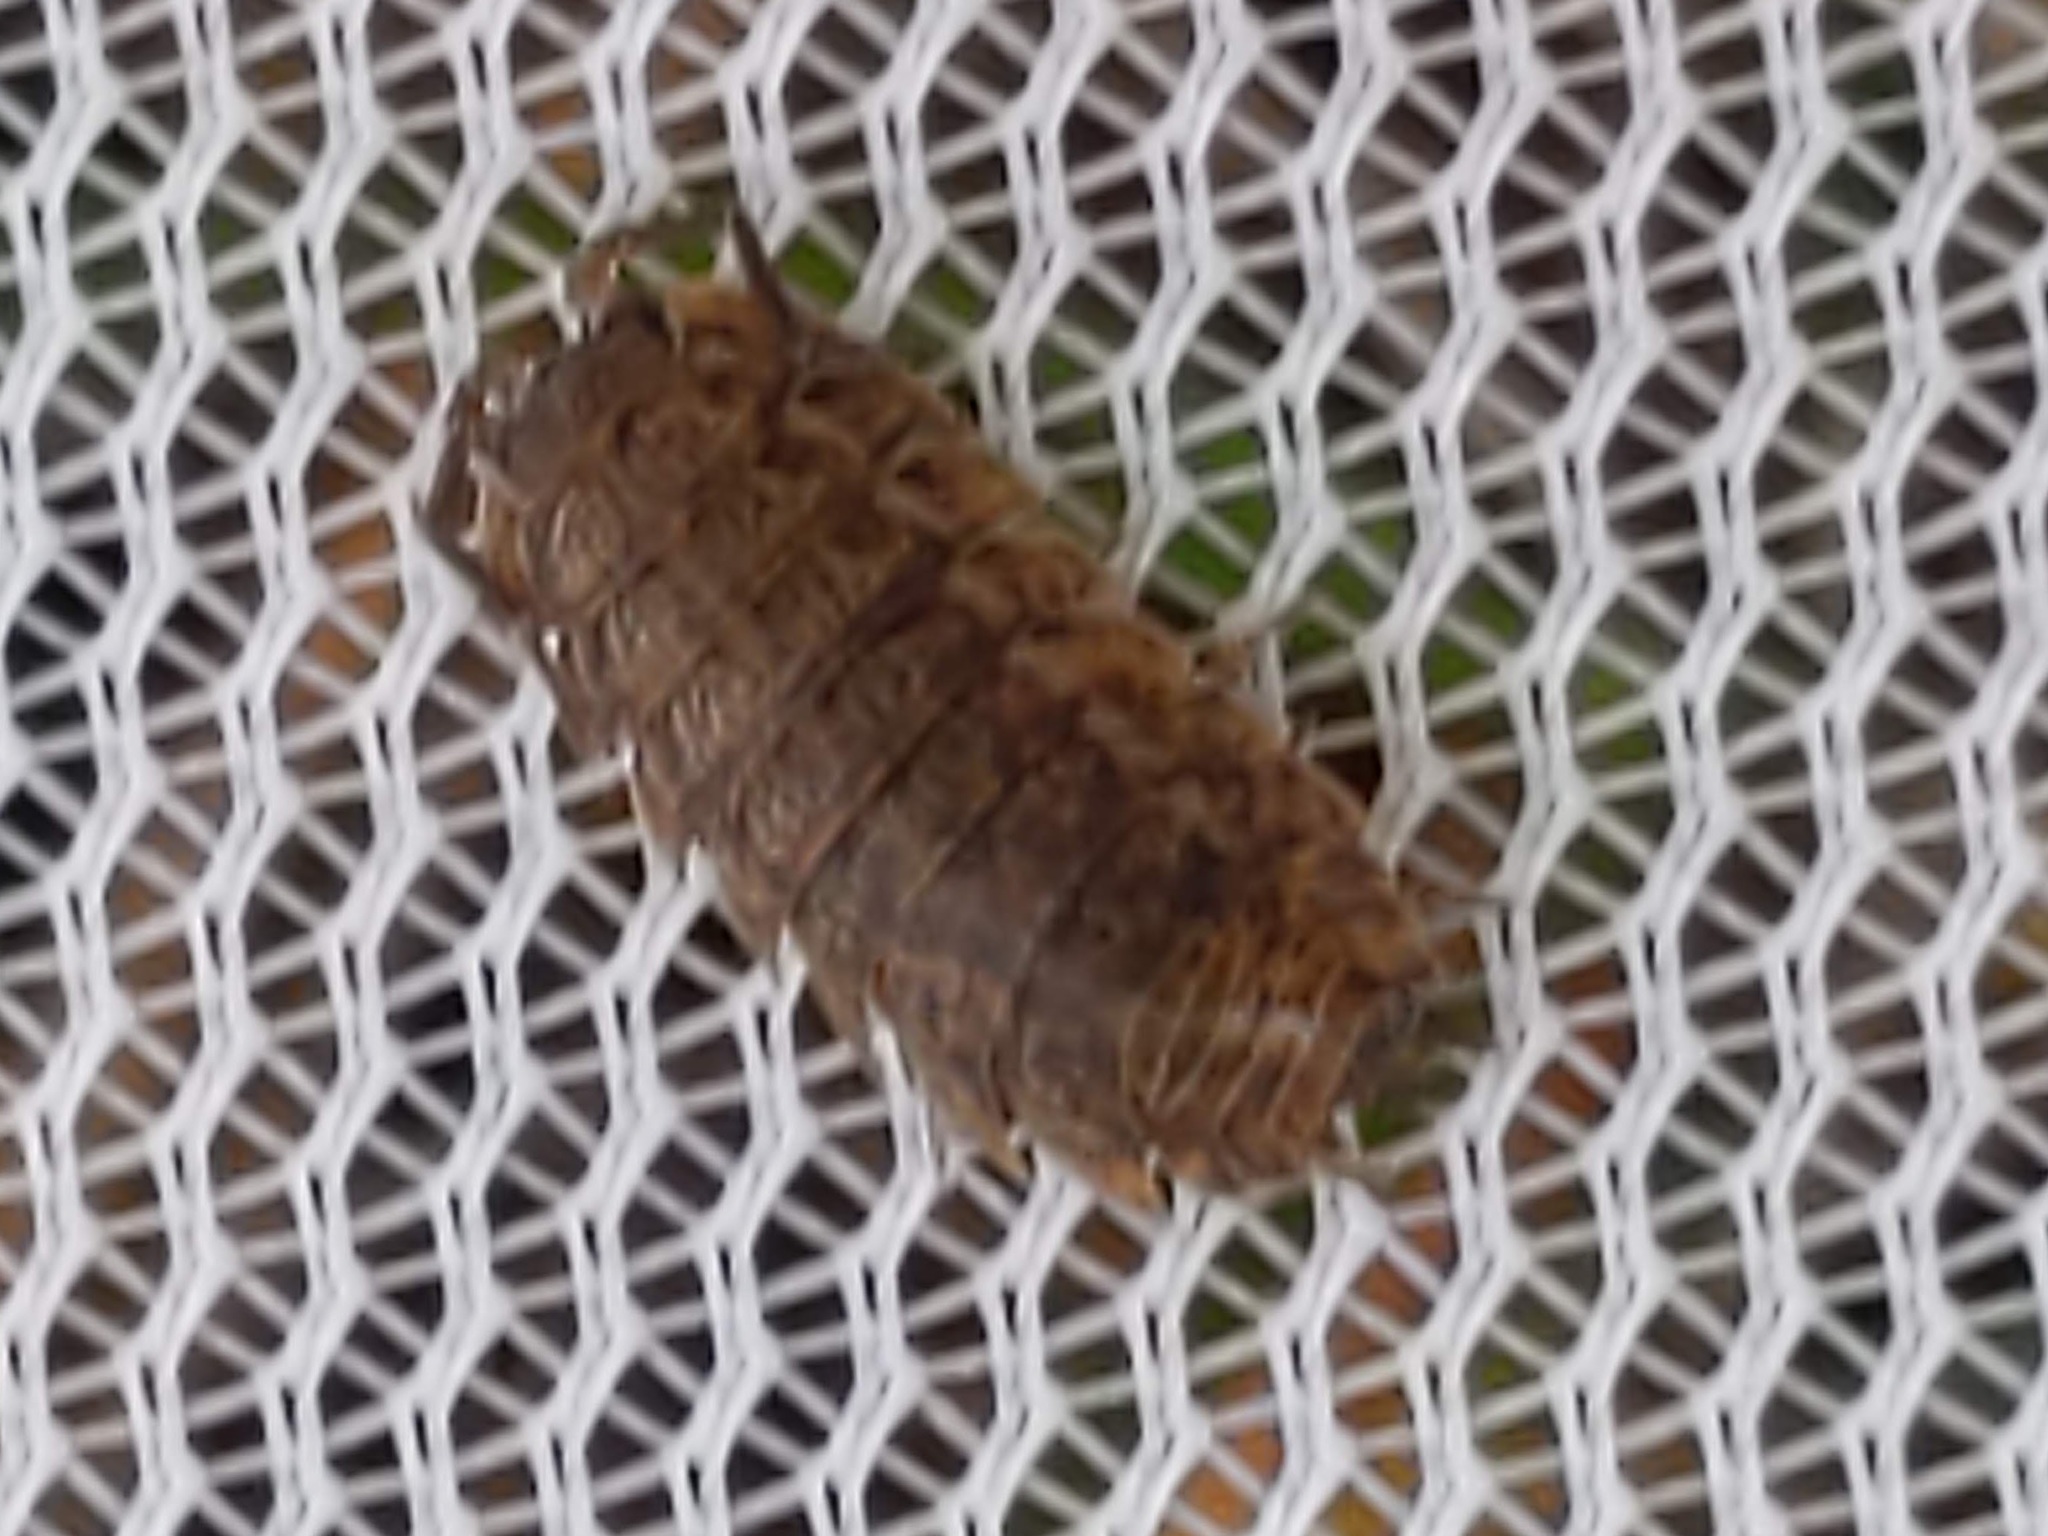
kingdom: Animalia
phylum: Arthropoda
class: Malacostraca
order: Isopoda
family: Trachelipodidae
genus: Trachelipus
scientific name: Trachelipus rathkii
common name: Isopod
